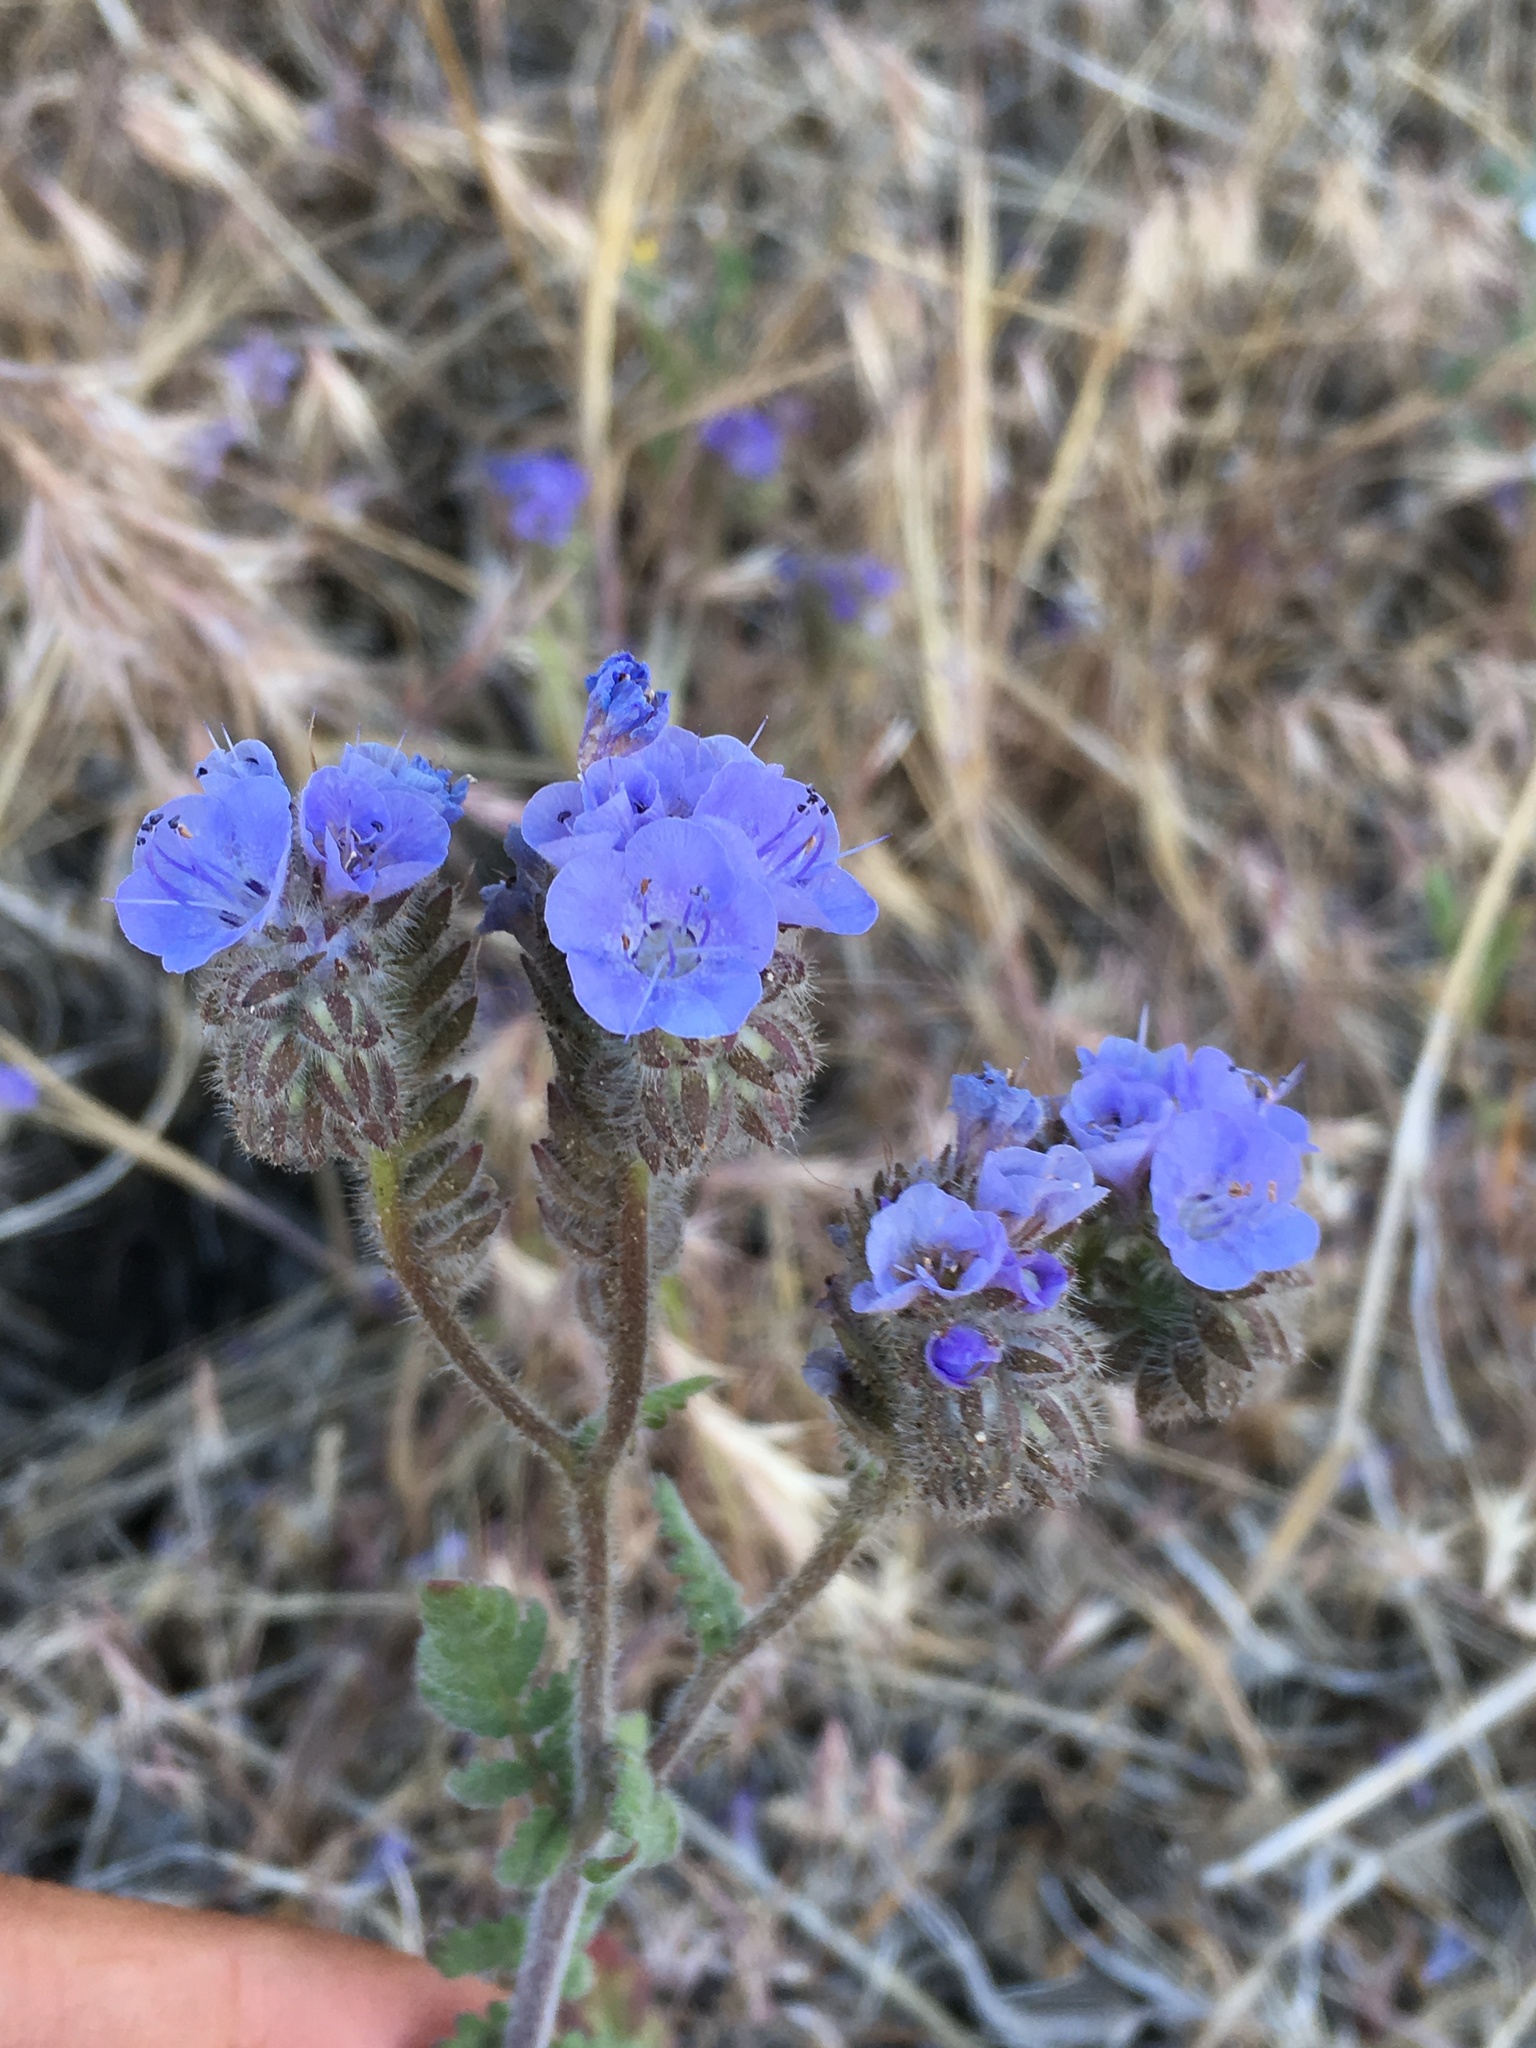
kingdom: Plantae
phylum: Tracheophyta
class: Magnoliopsida
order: Boraginales
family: Hydrophyllaceae
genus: Phacelia
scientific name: Phacelia distans
